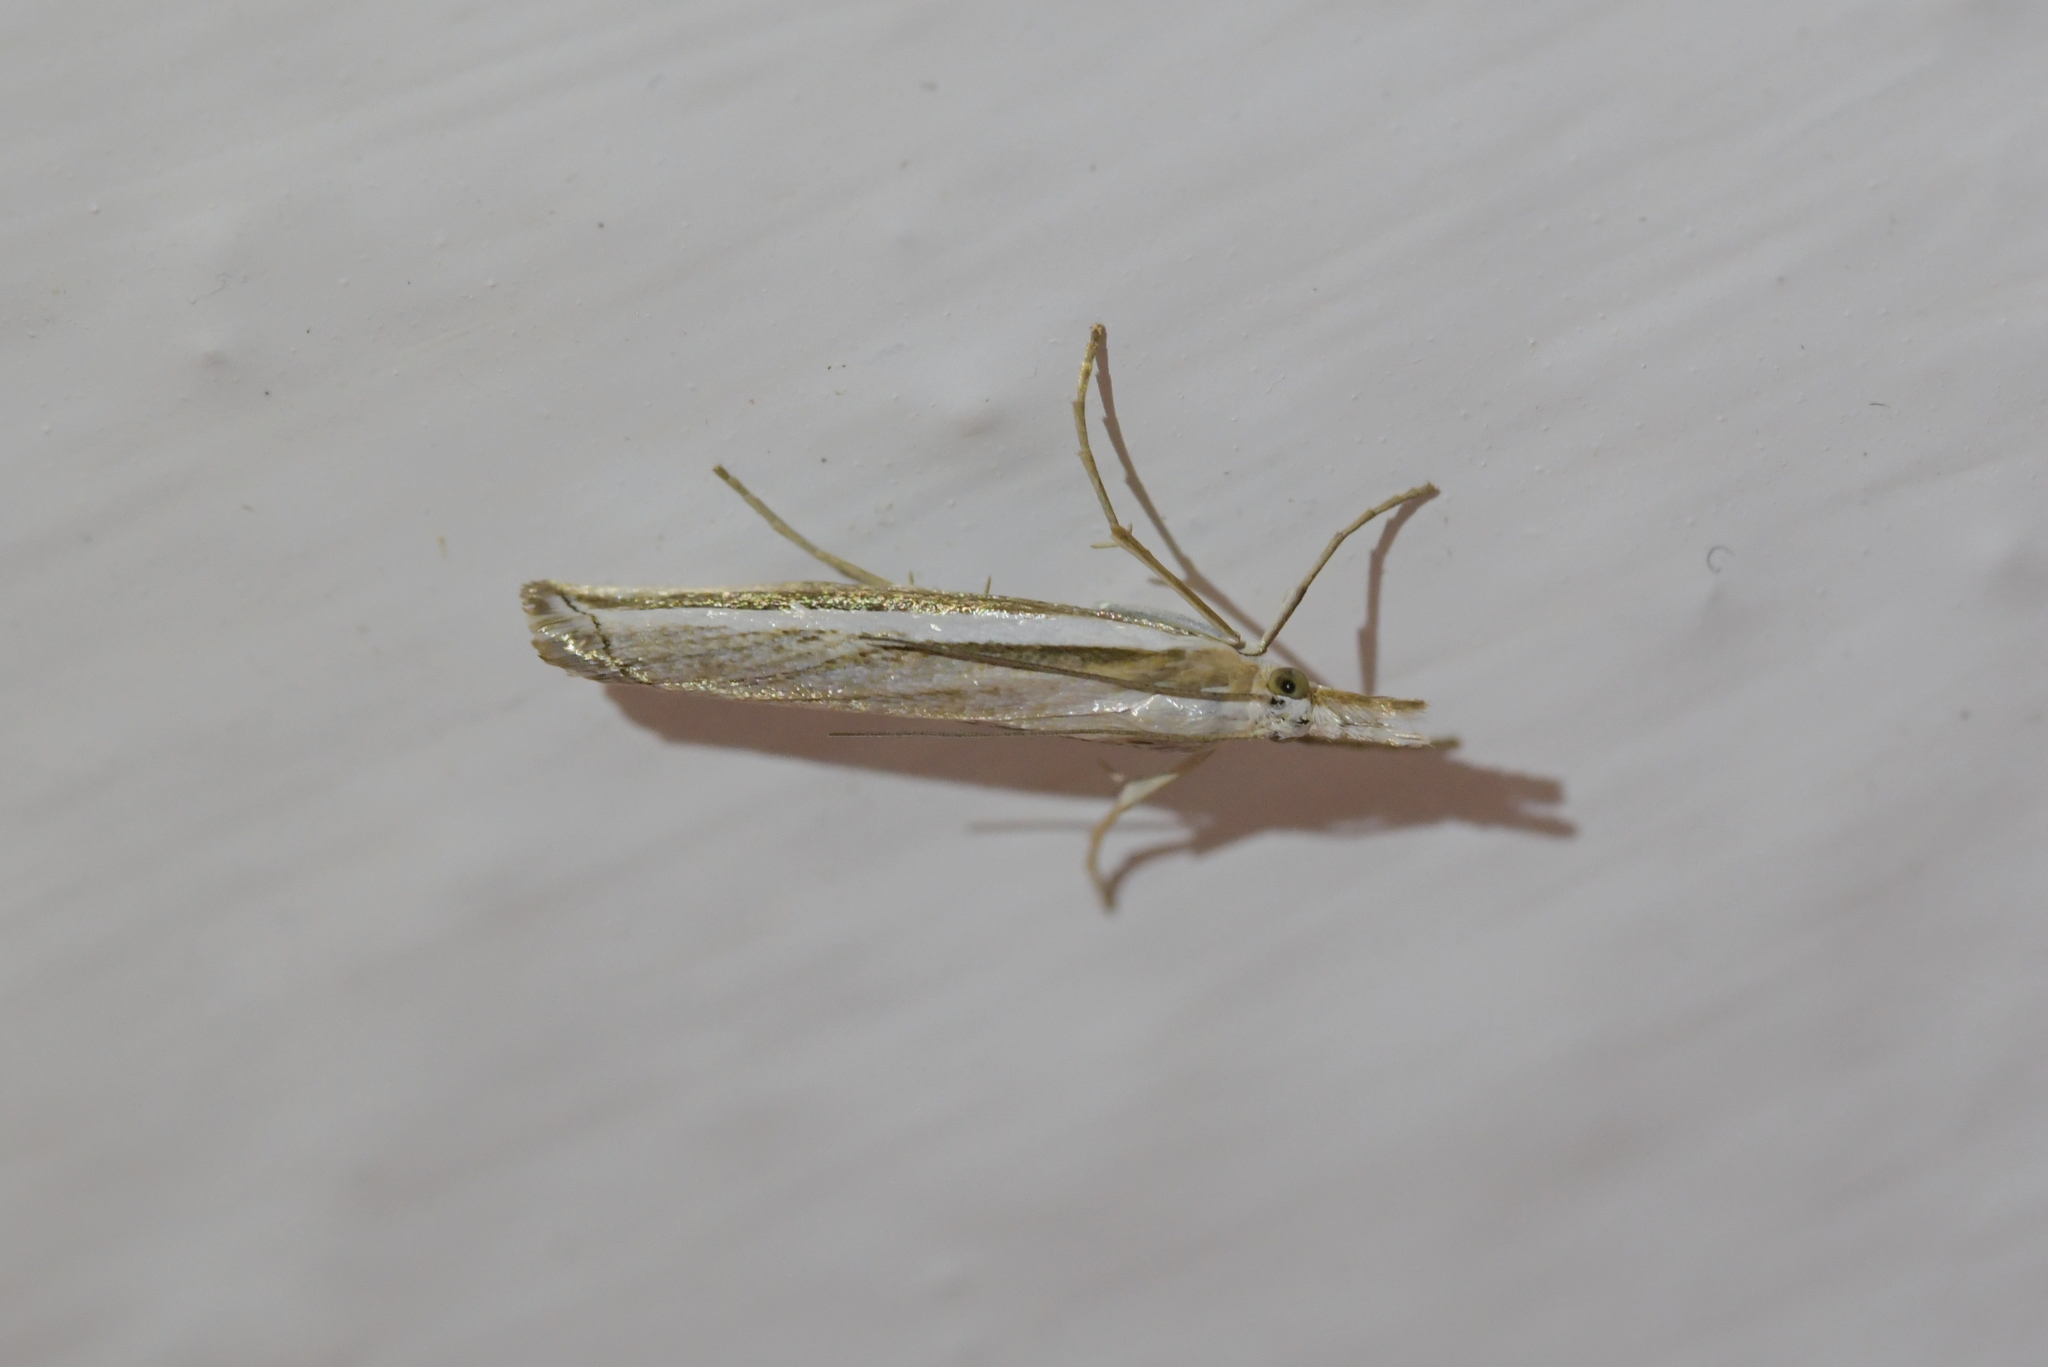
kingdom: Animalia
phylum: Arthropoda
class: Insecta
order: Lepidoptera
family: Crambidae
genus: Orocrambus
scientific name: Orocrambus vittellus
